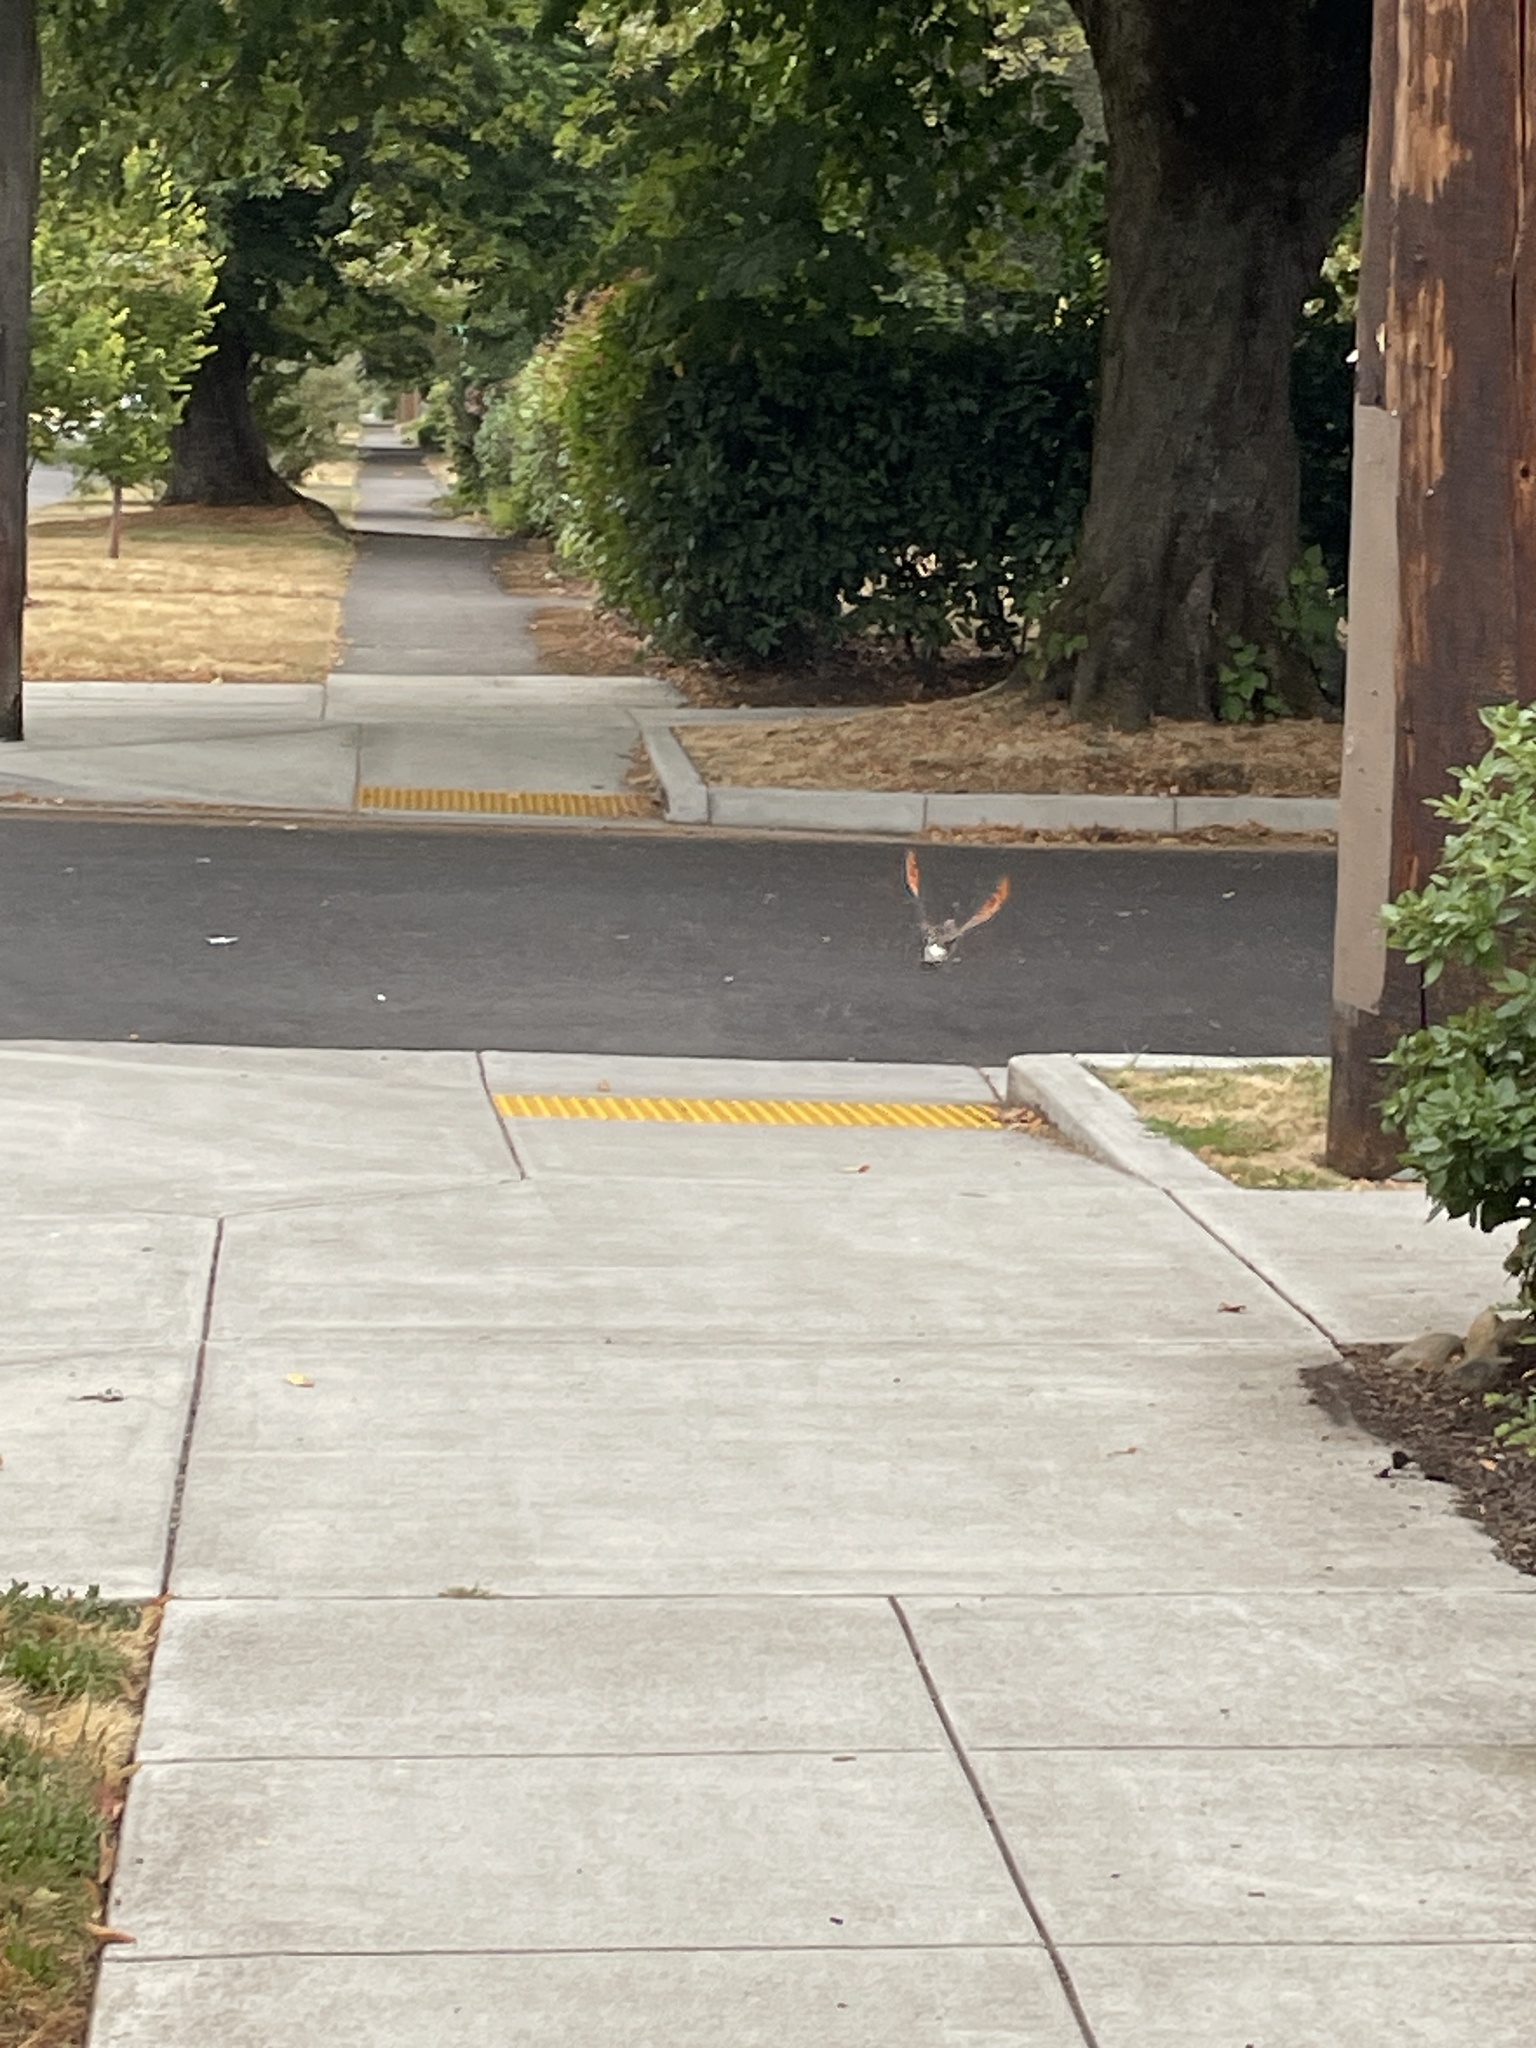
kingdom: Animalia
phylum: Chordata
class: Aves
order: Piciformes
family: Picidae
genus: Colaptes
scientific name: Colaptes auratus
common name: Northern flicker
